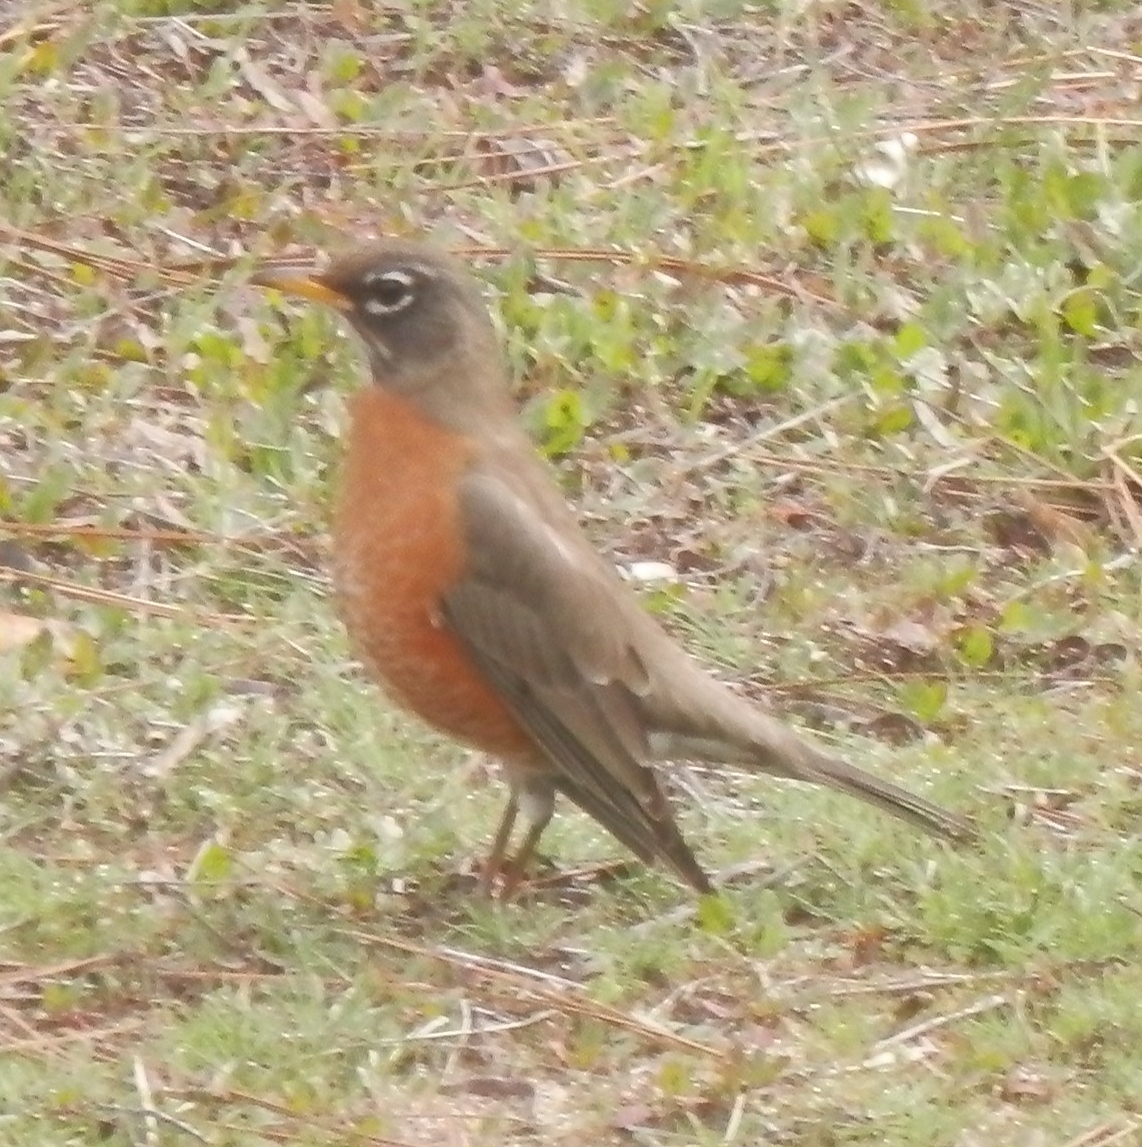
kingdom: Animalia
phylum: Chordata
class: Aves
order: Passeriformes
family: Turdidae
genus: Turdus
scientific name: Turdus migratorius
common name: American robin
